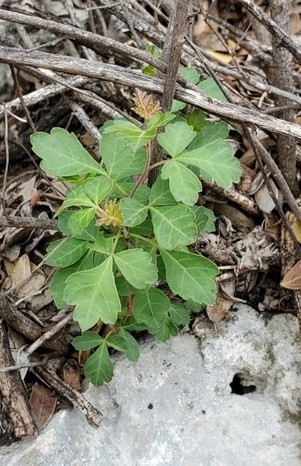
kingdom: Plantae
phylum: Tracheophyta
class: Magnoliopsida
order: Sapindales
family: Anacardiaceae
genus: Rhus
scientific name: Rhus aromatica
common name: Aromatic sumac
